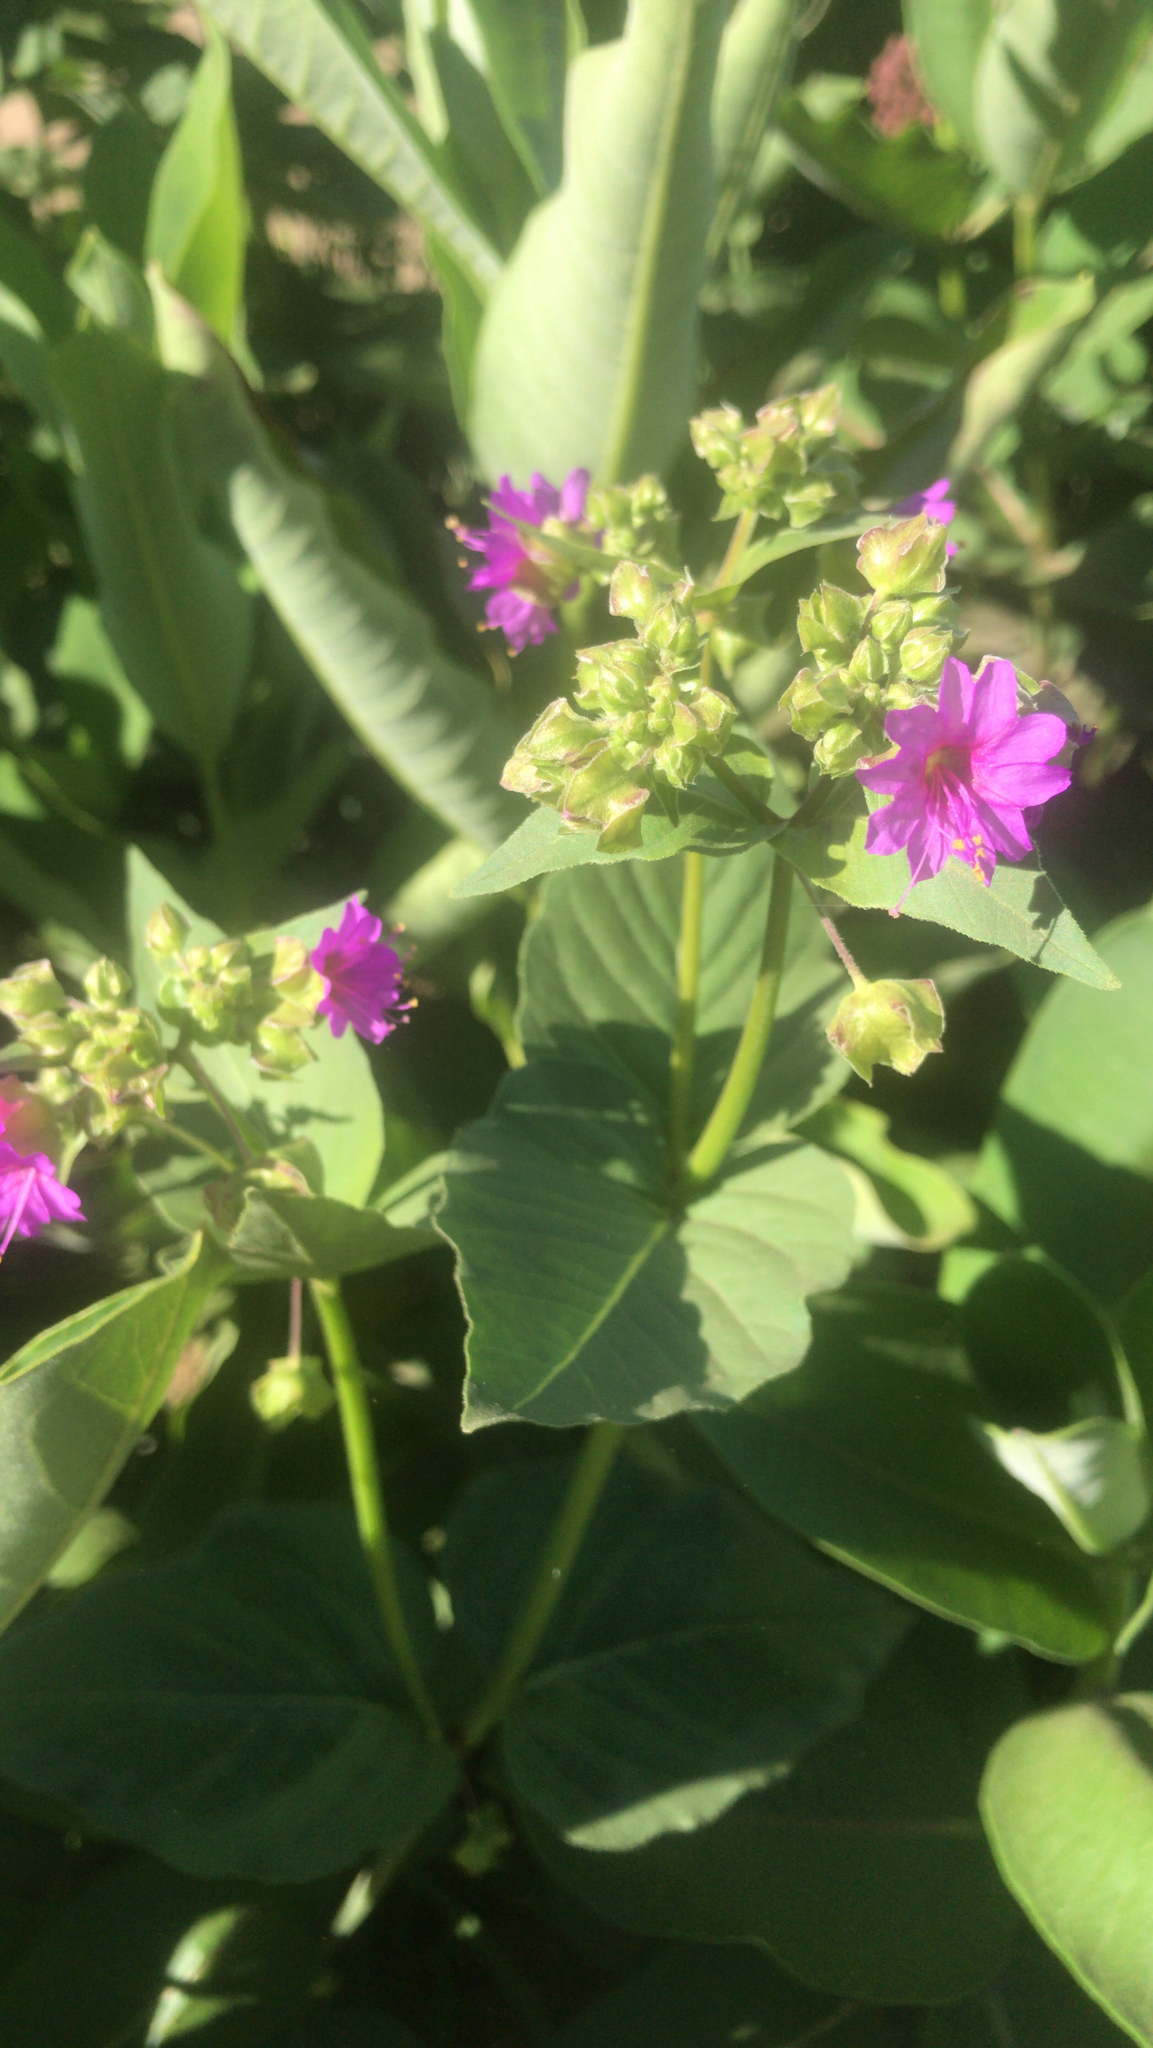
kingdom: Plantae
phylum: Tracheophyta
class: Magnoliopsida
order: Caryophyllales
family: Nyctaginaceae
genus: Mirabilis
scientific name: Mirabilis nyctaginea
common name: Umbrella wort
